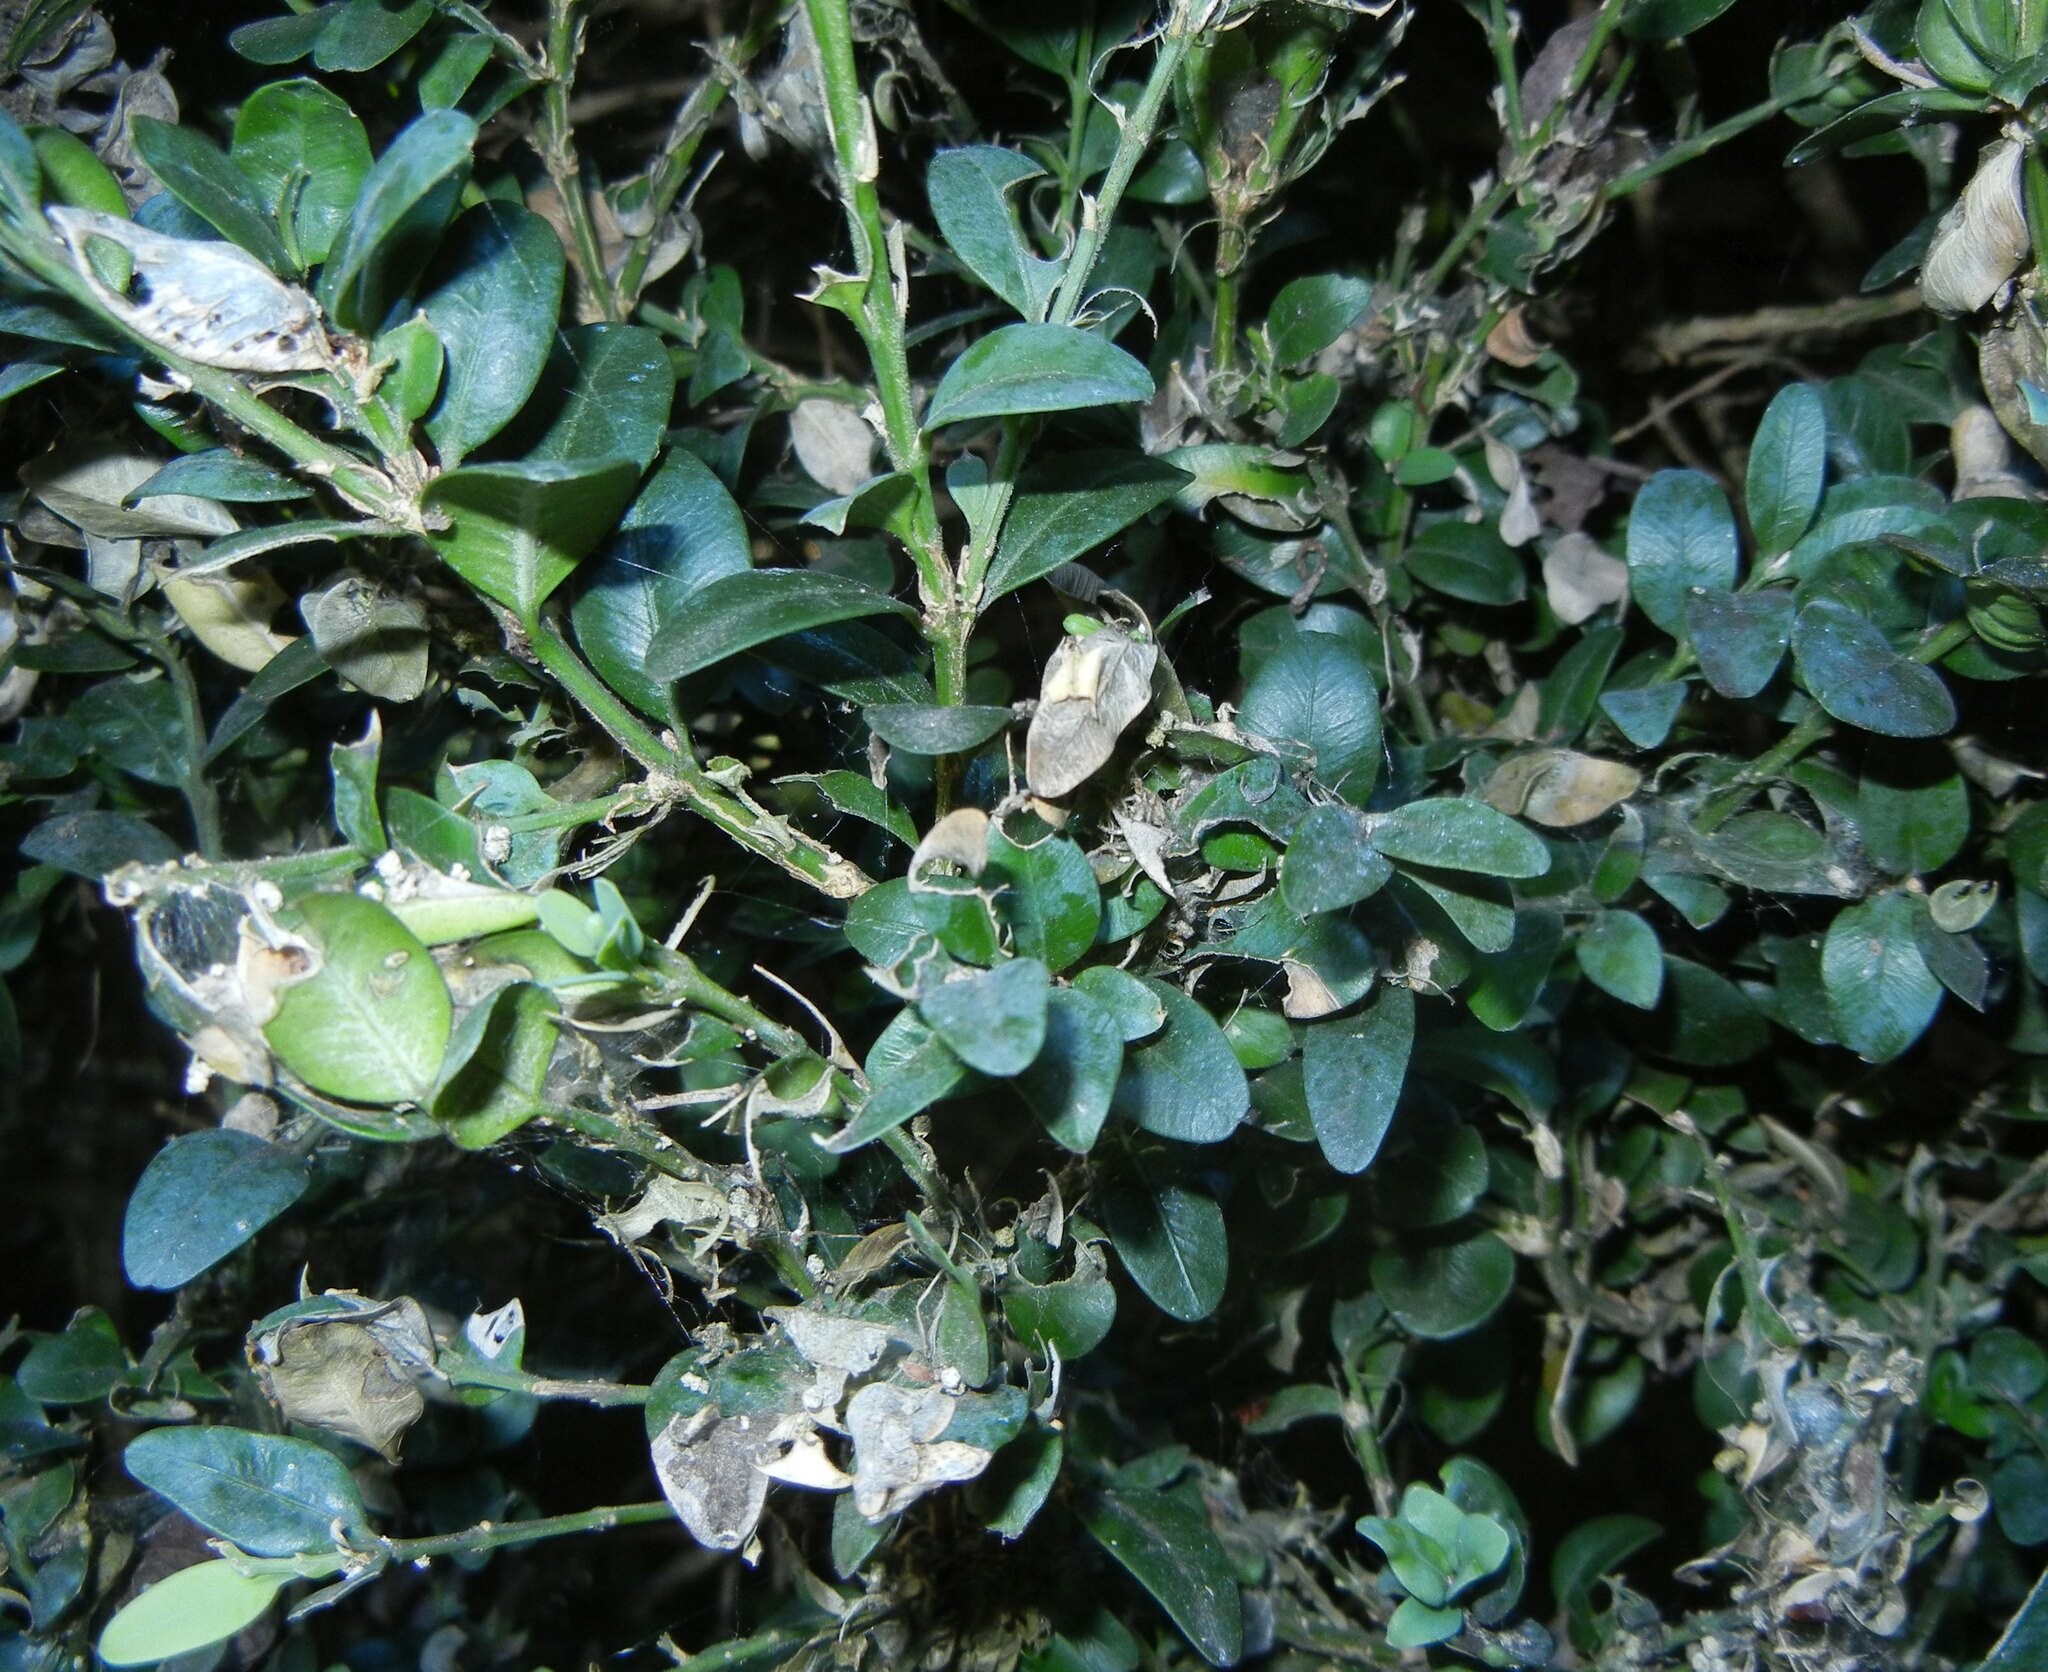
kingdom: Animalia
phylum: Arthropoda
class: Insecta
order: Lepidoptera
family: Crambidae
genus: Cydalima
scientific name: Cydalima perspectalis
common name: Box tree moth
